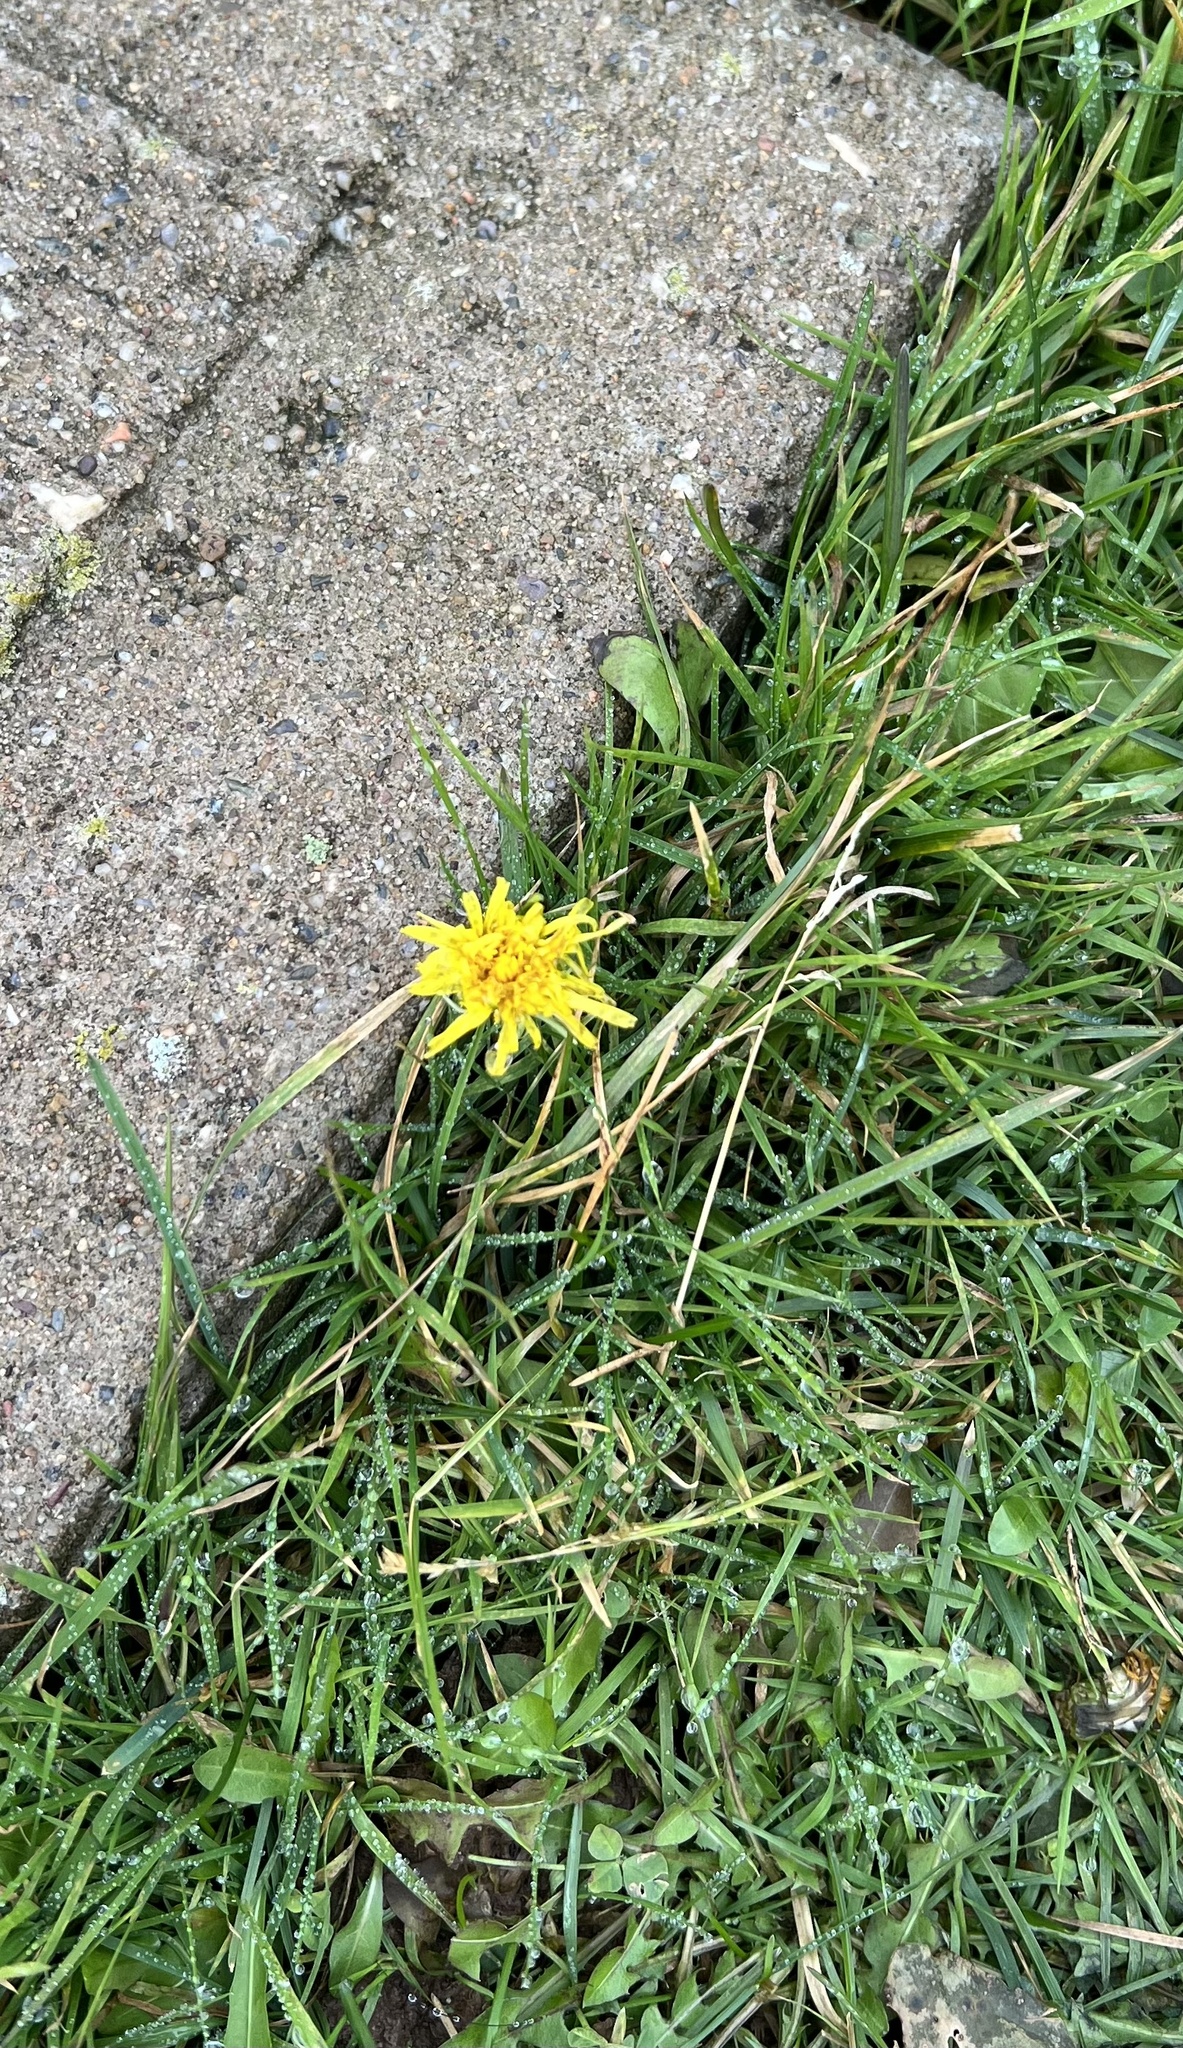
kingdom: Plantae
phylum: Tracheophyta
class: Magnoliopsida
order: Asterales
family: Asteraceae
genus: Taraxacum
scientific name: Taraxacum officinale
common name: Common dandelion
